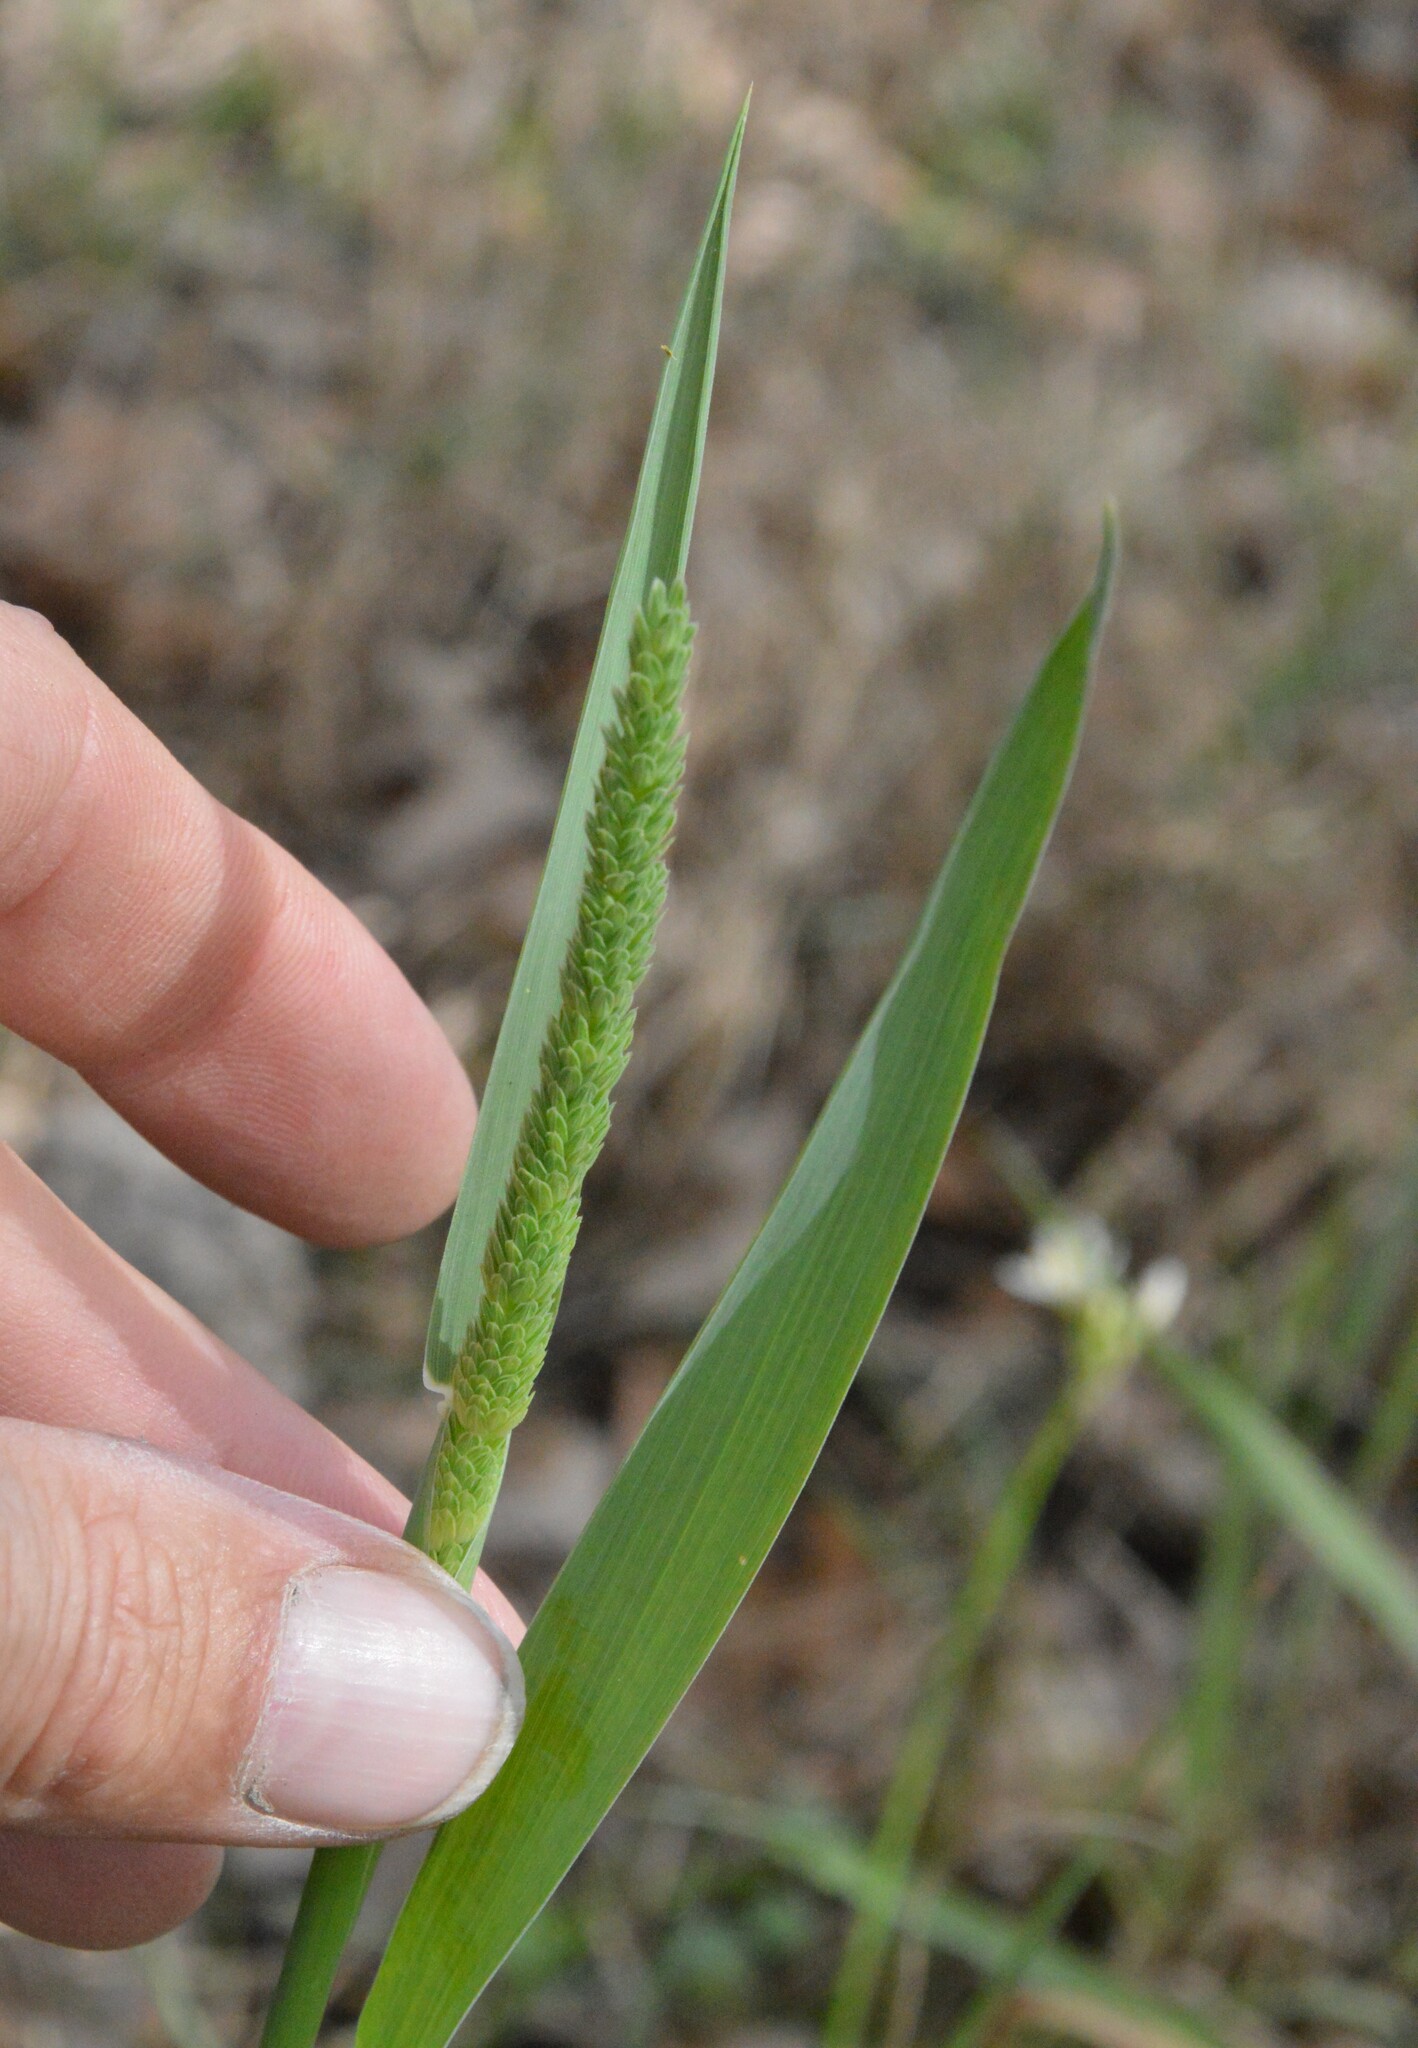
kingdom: Plantae
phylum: Tracheophyta
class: Liliopsida
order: Poales
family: Poaceae
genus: Phalaris
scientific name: Phalaris angusta
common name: Narrow canary grass
